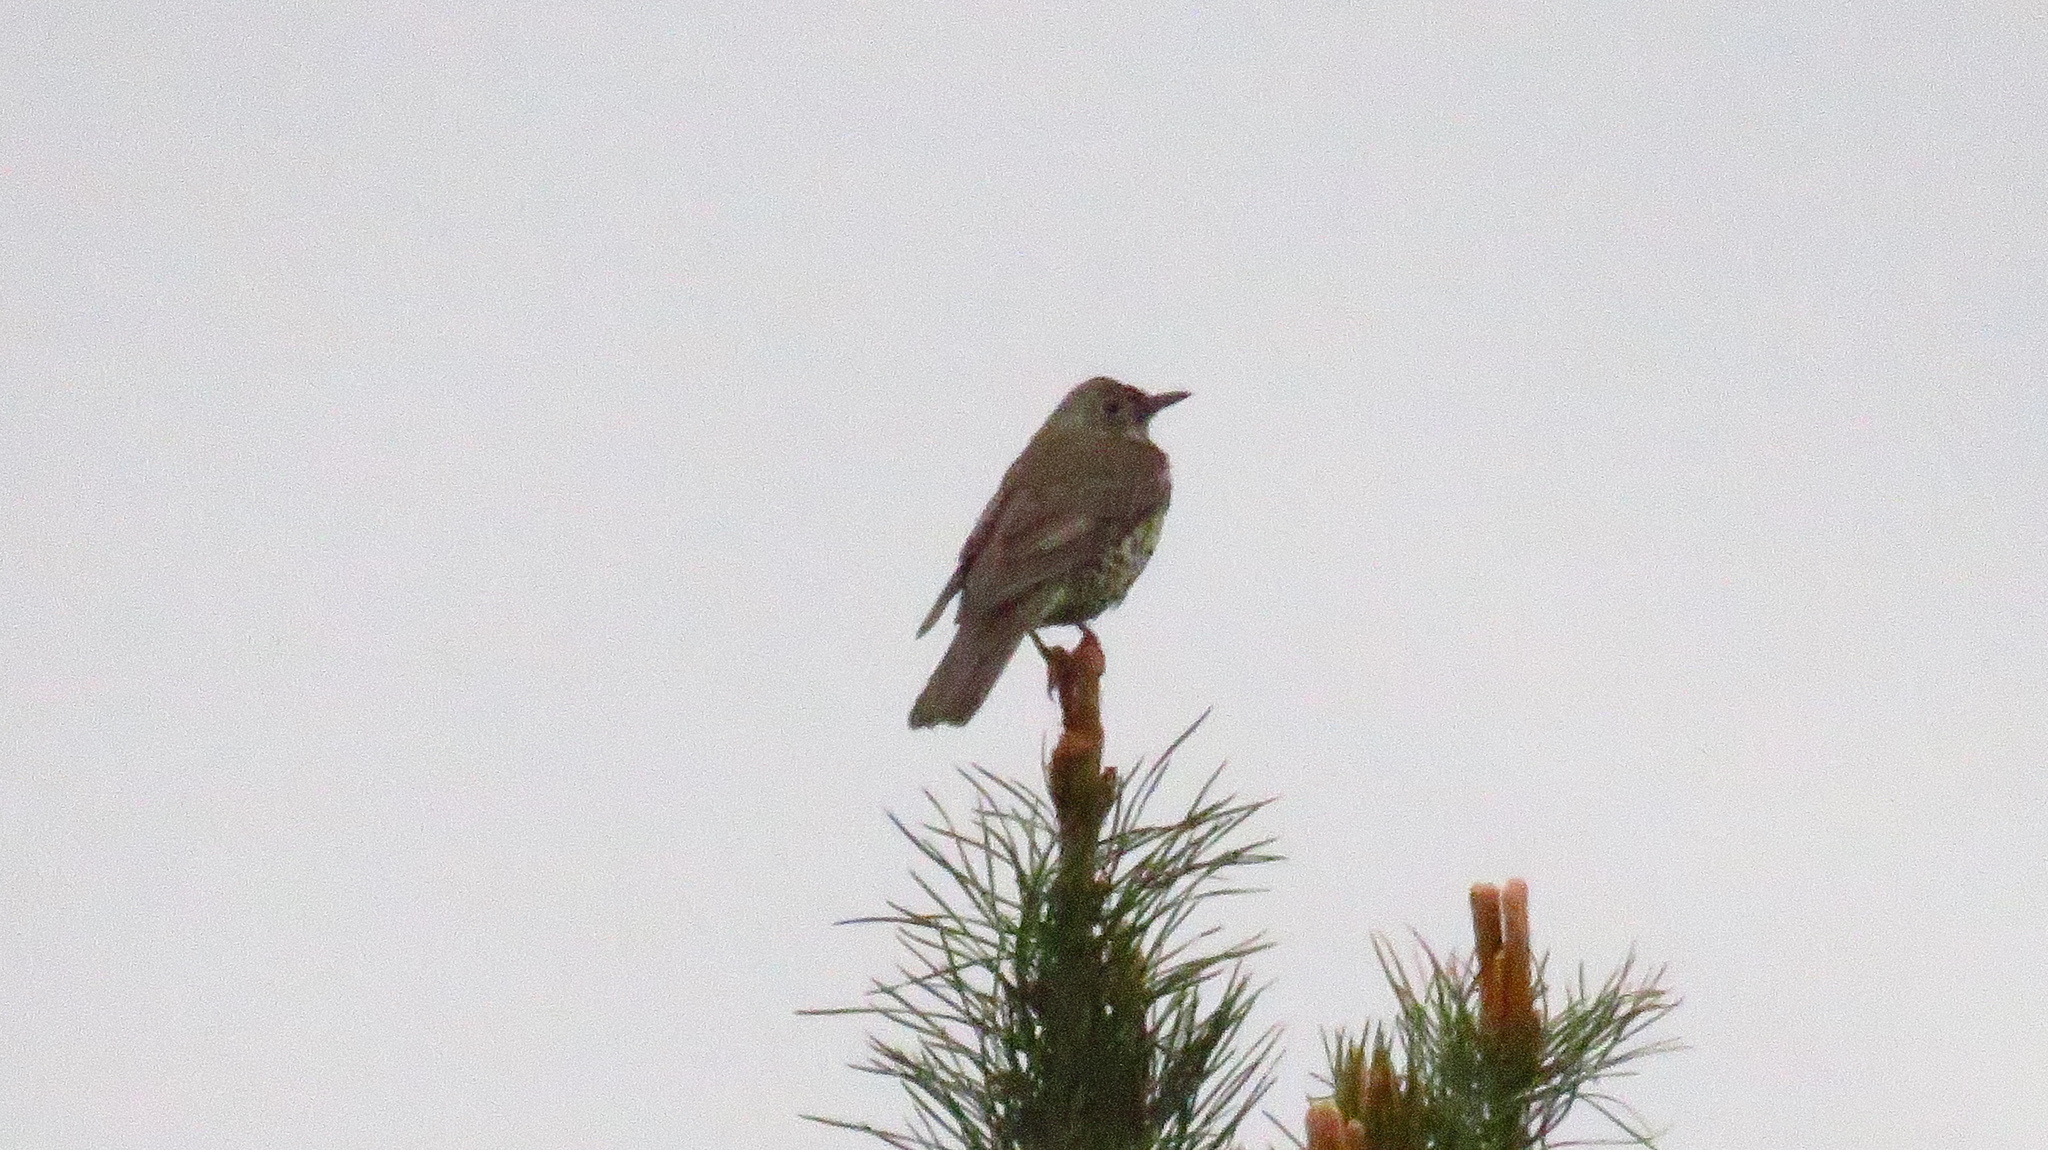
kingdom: Animalia
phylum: Chordata
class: Aves
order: Passeriformes
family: Turdidae
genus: Turdus
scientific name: Turdus viscivorus
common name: Mistle thrush
